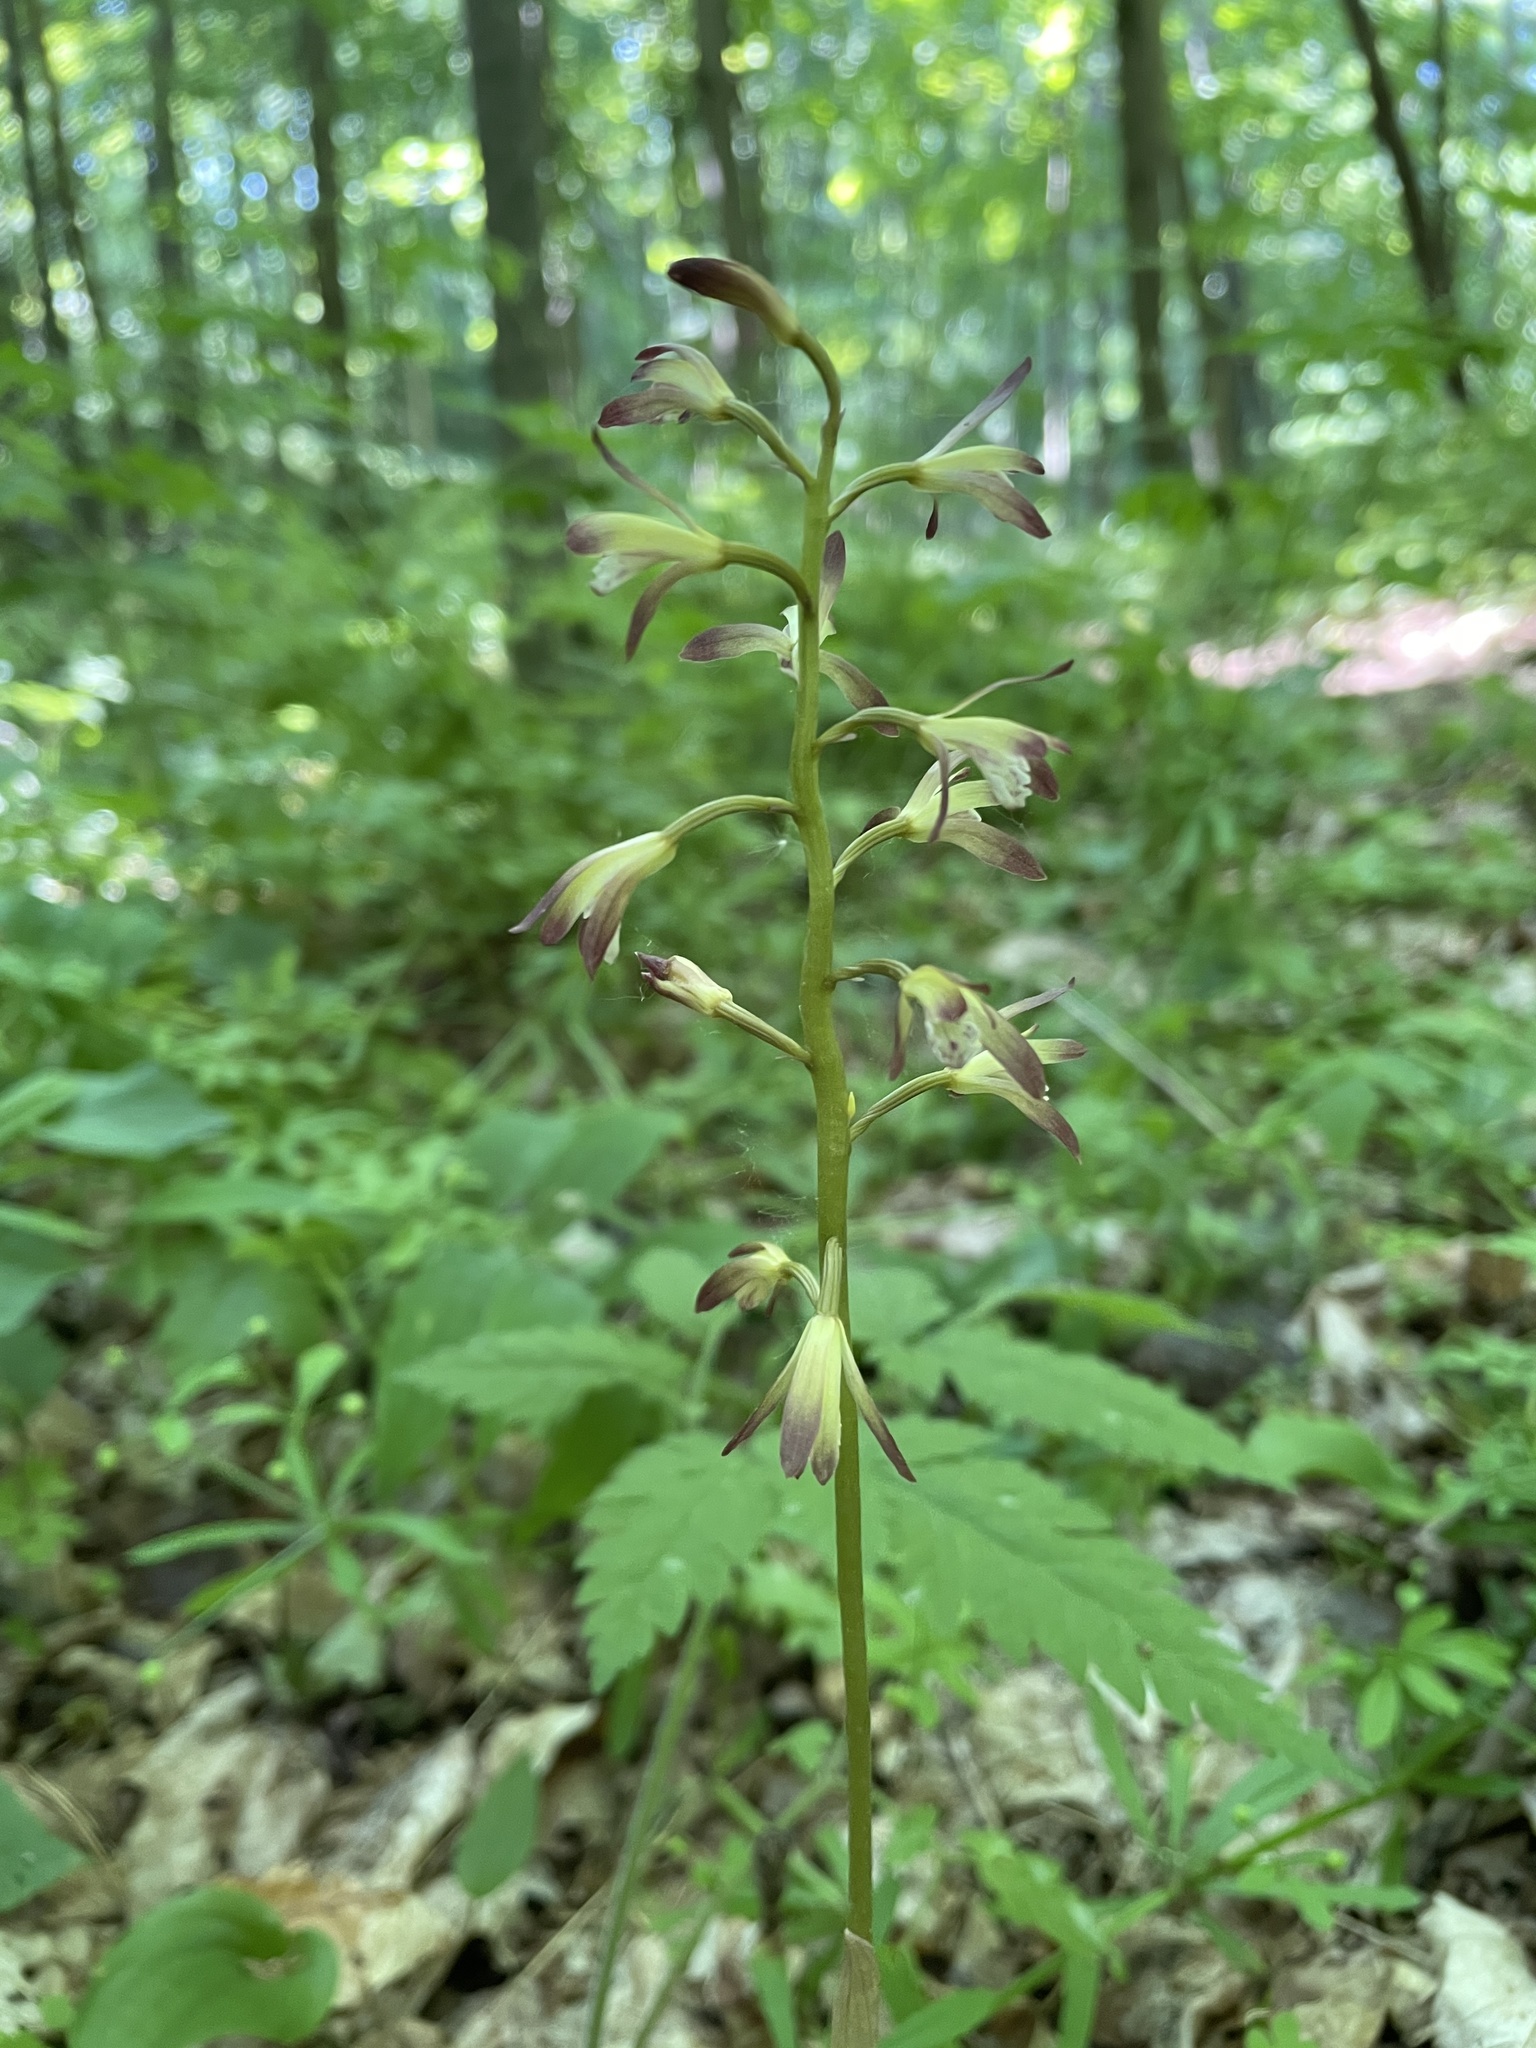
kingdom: Plantae
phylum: Tracheophyta
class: Liliopsida
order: Asparagales
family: Orchidaceae
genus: Aplectrum
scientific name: Aplectrum hyemale
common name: Adam-and-eve
